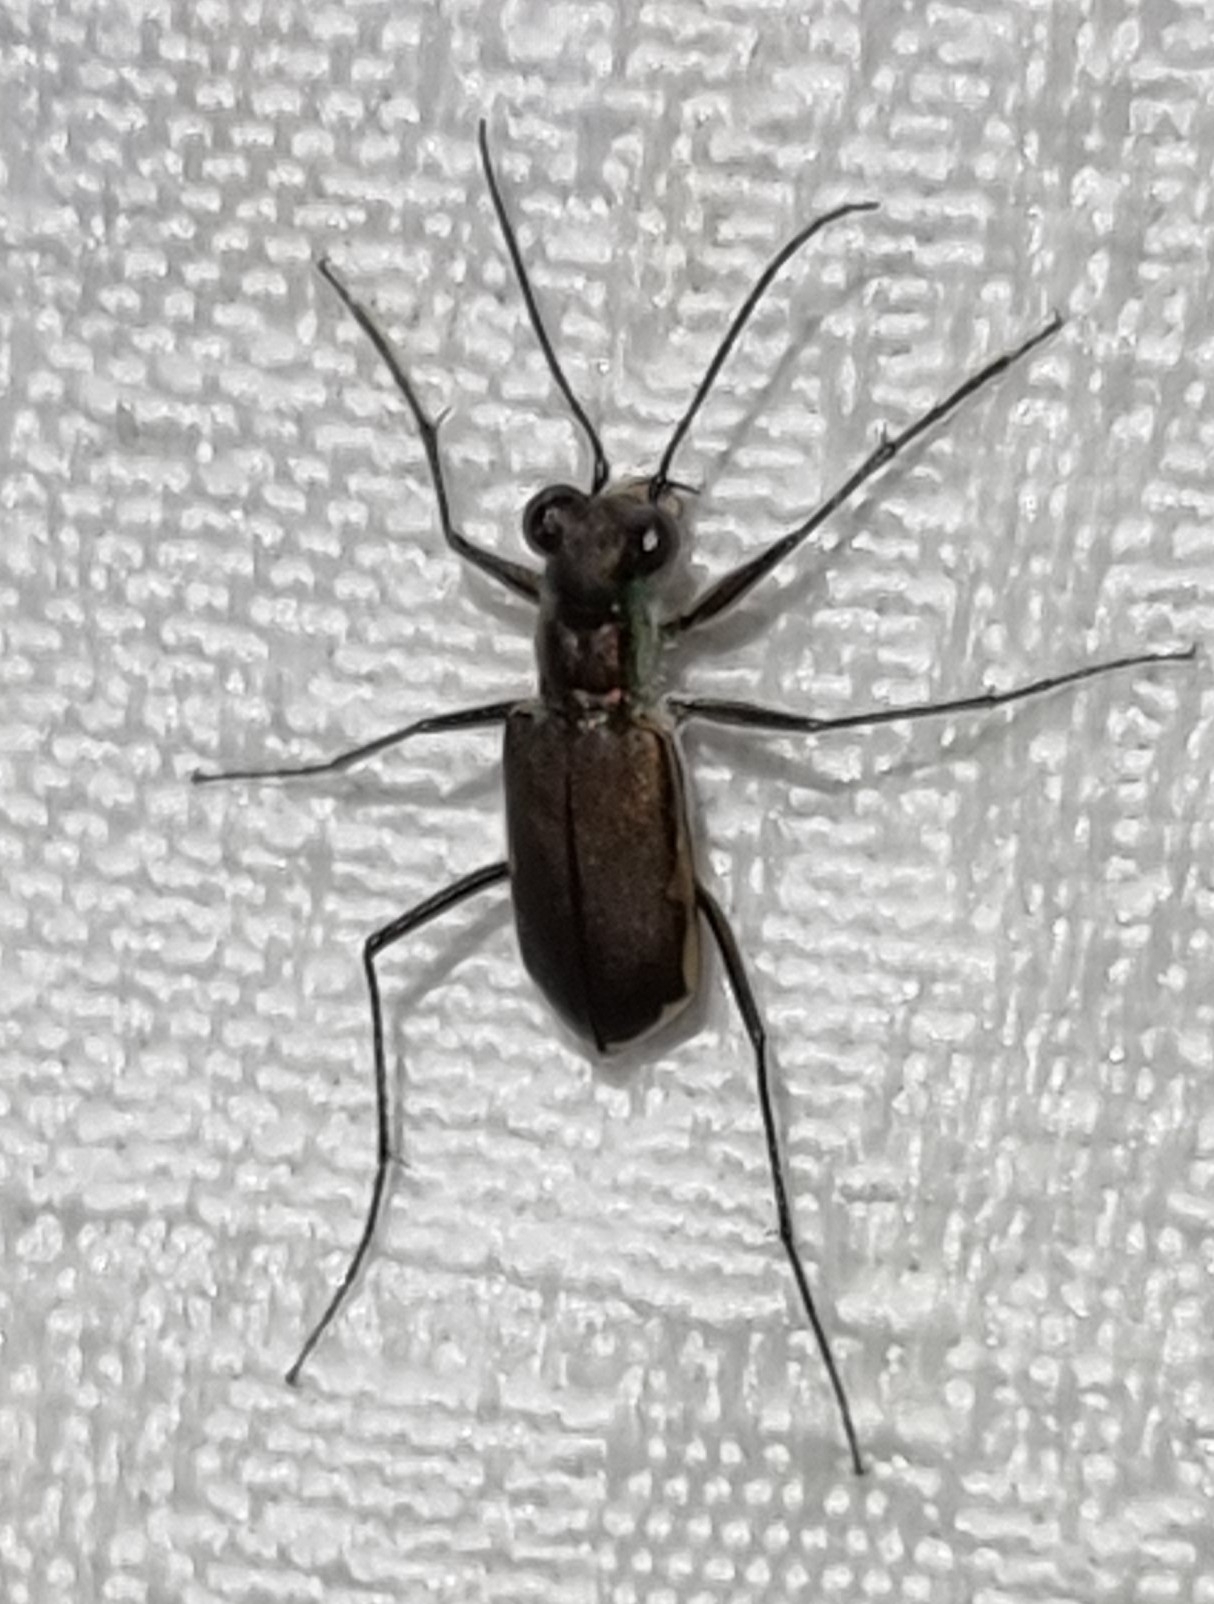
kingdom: Animalia
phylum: Arthropoda
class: Insecta
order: Coleoptera
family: Carabidae
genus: Myriochila
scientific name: Myriochila semicincta
